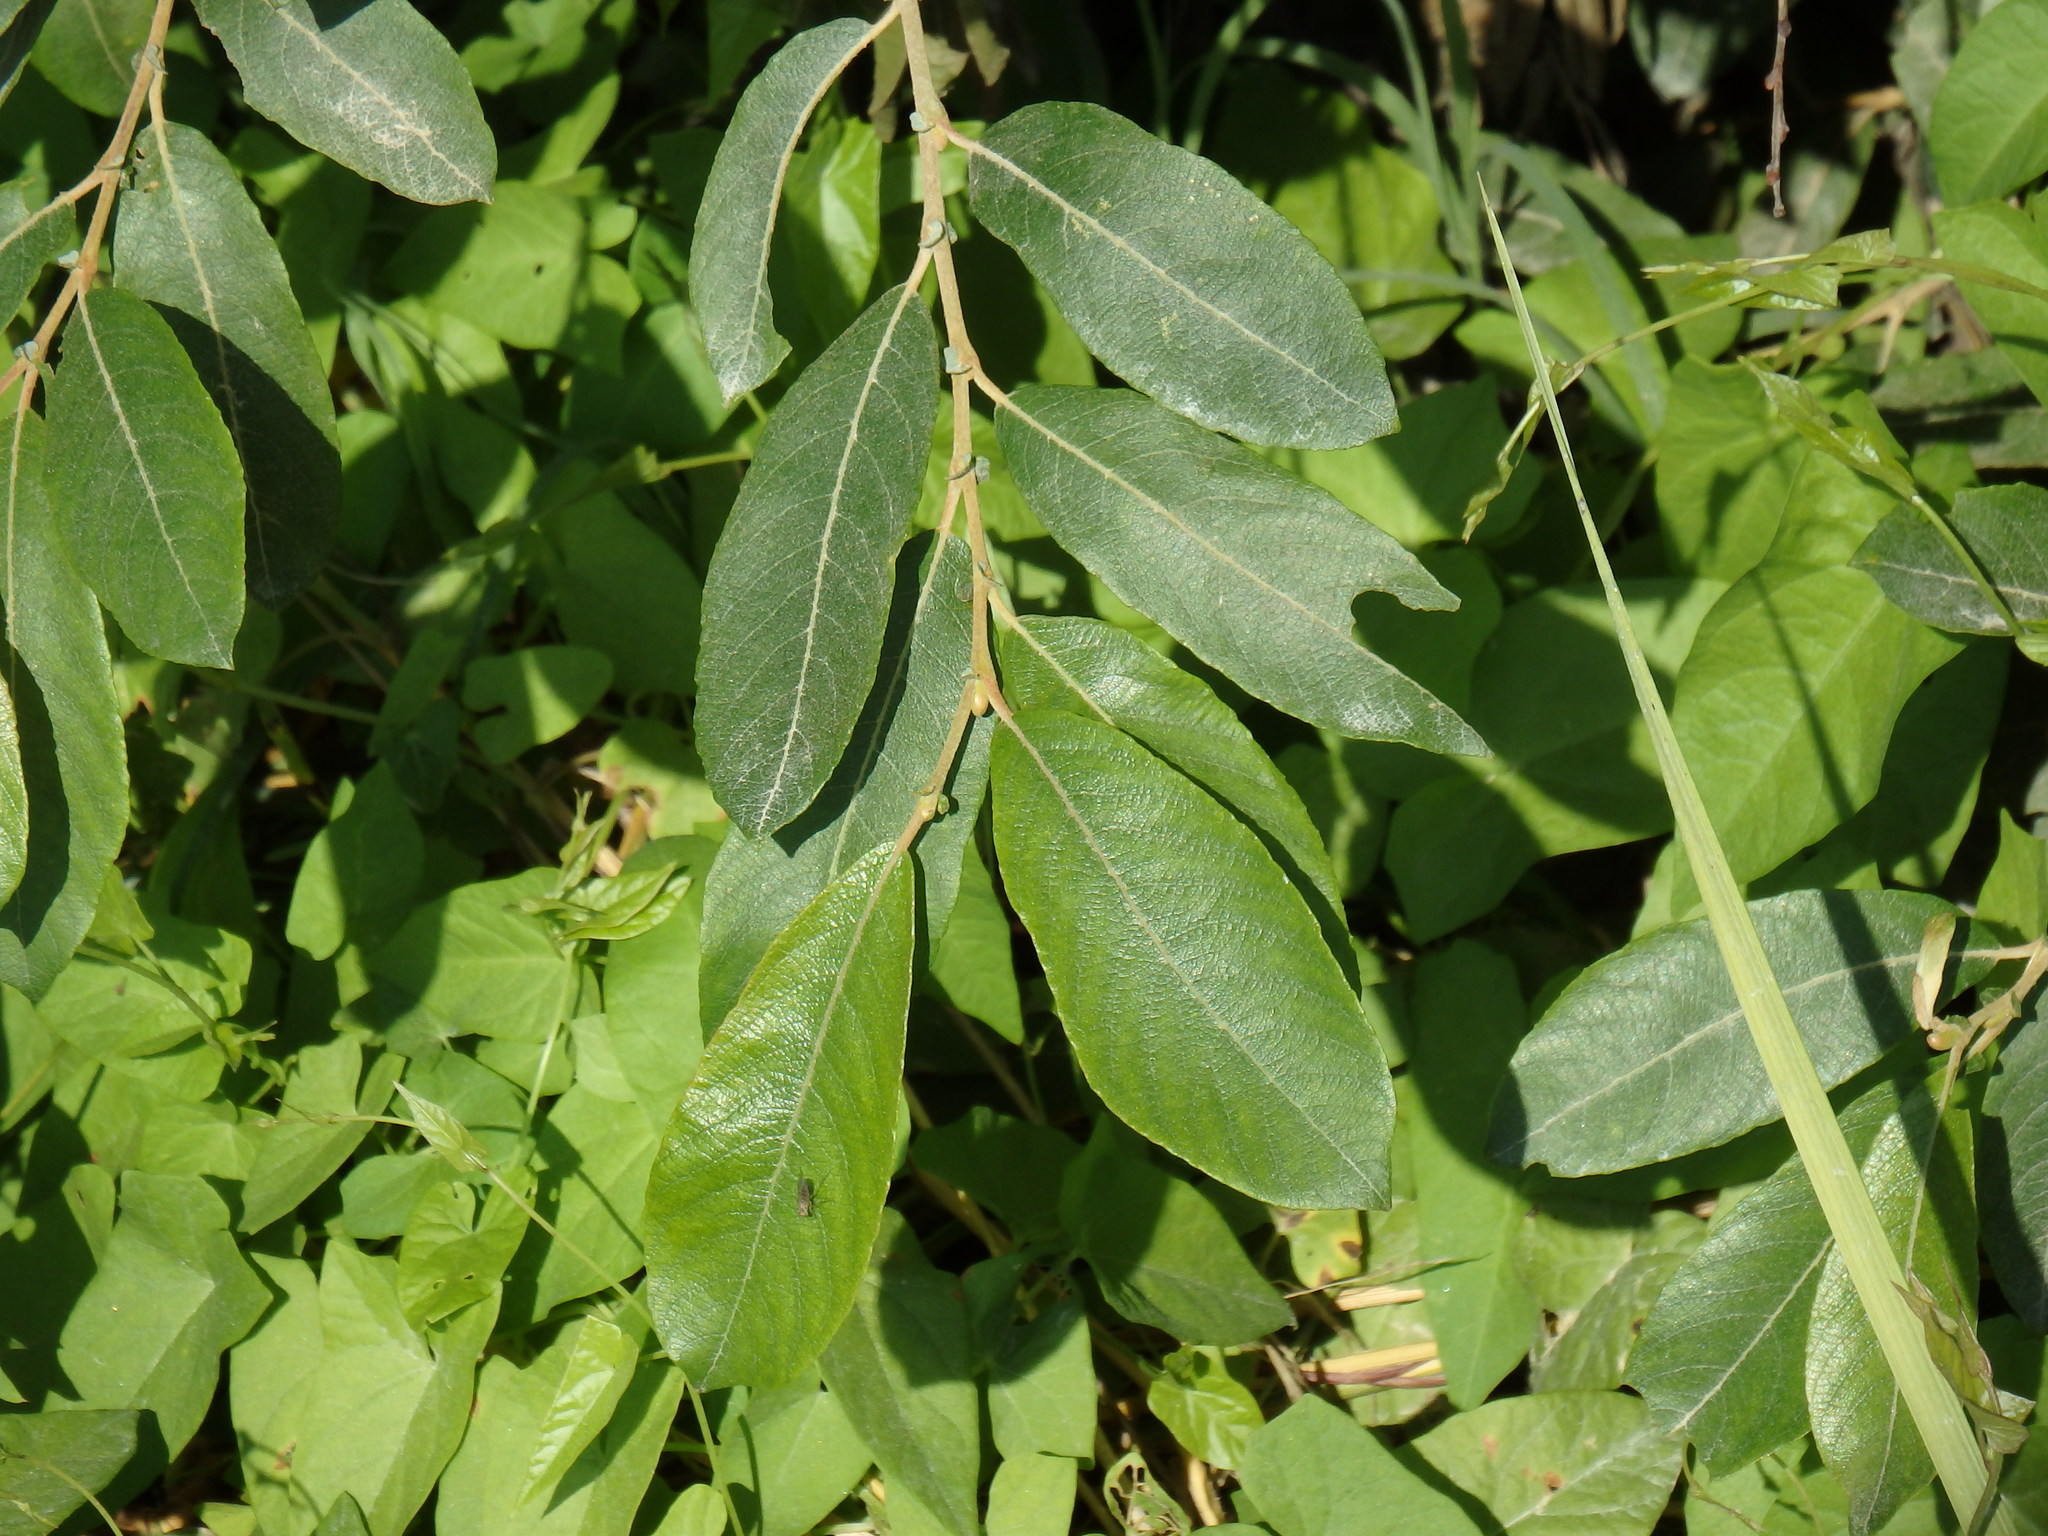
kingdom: Plantae
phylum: Tracheophyta
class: Magnoliopsida
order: Malpighiales
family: Salicaceae
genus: Salix
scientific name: Salix atrocinerea
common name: Rusty willow
